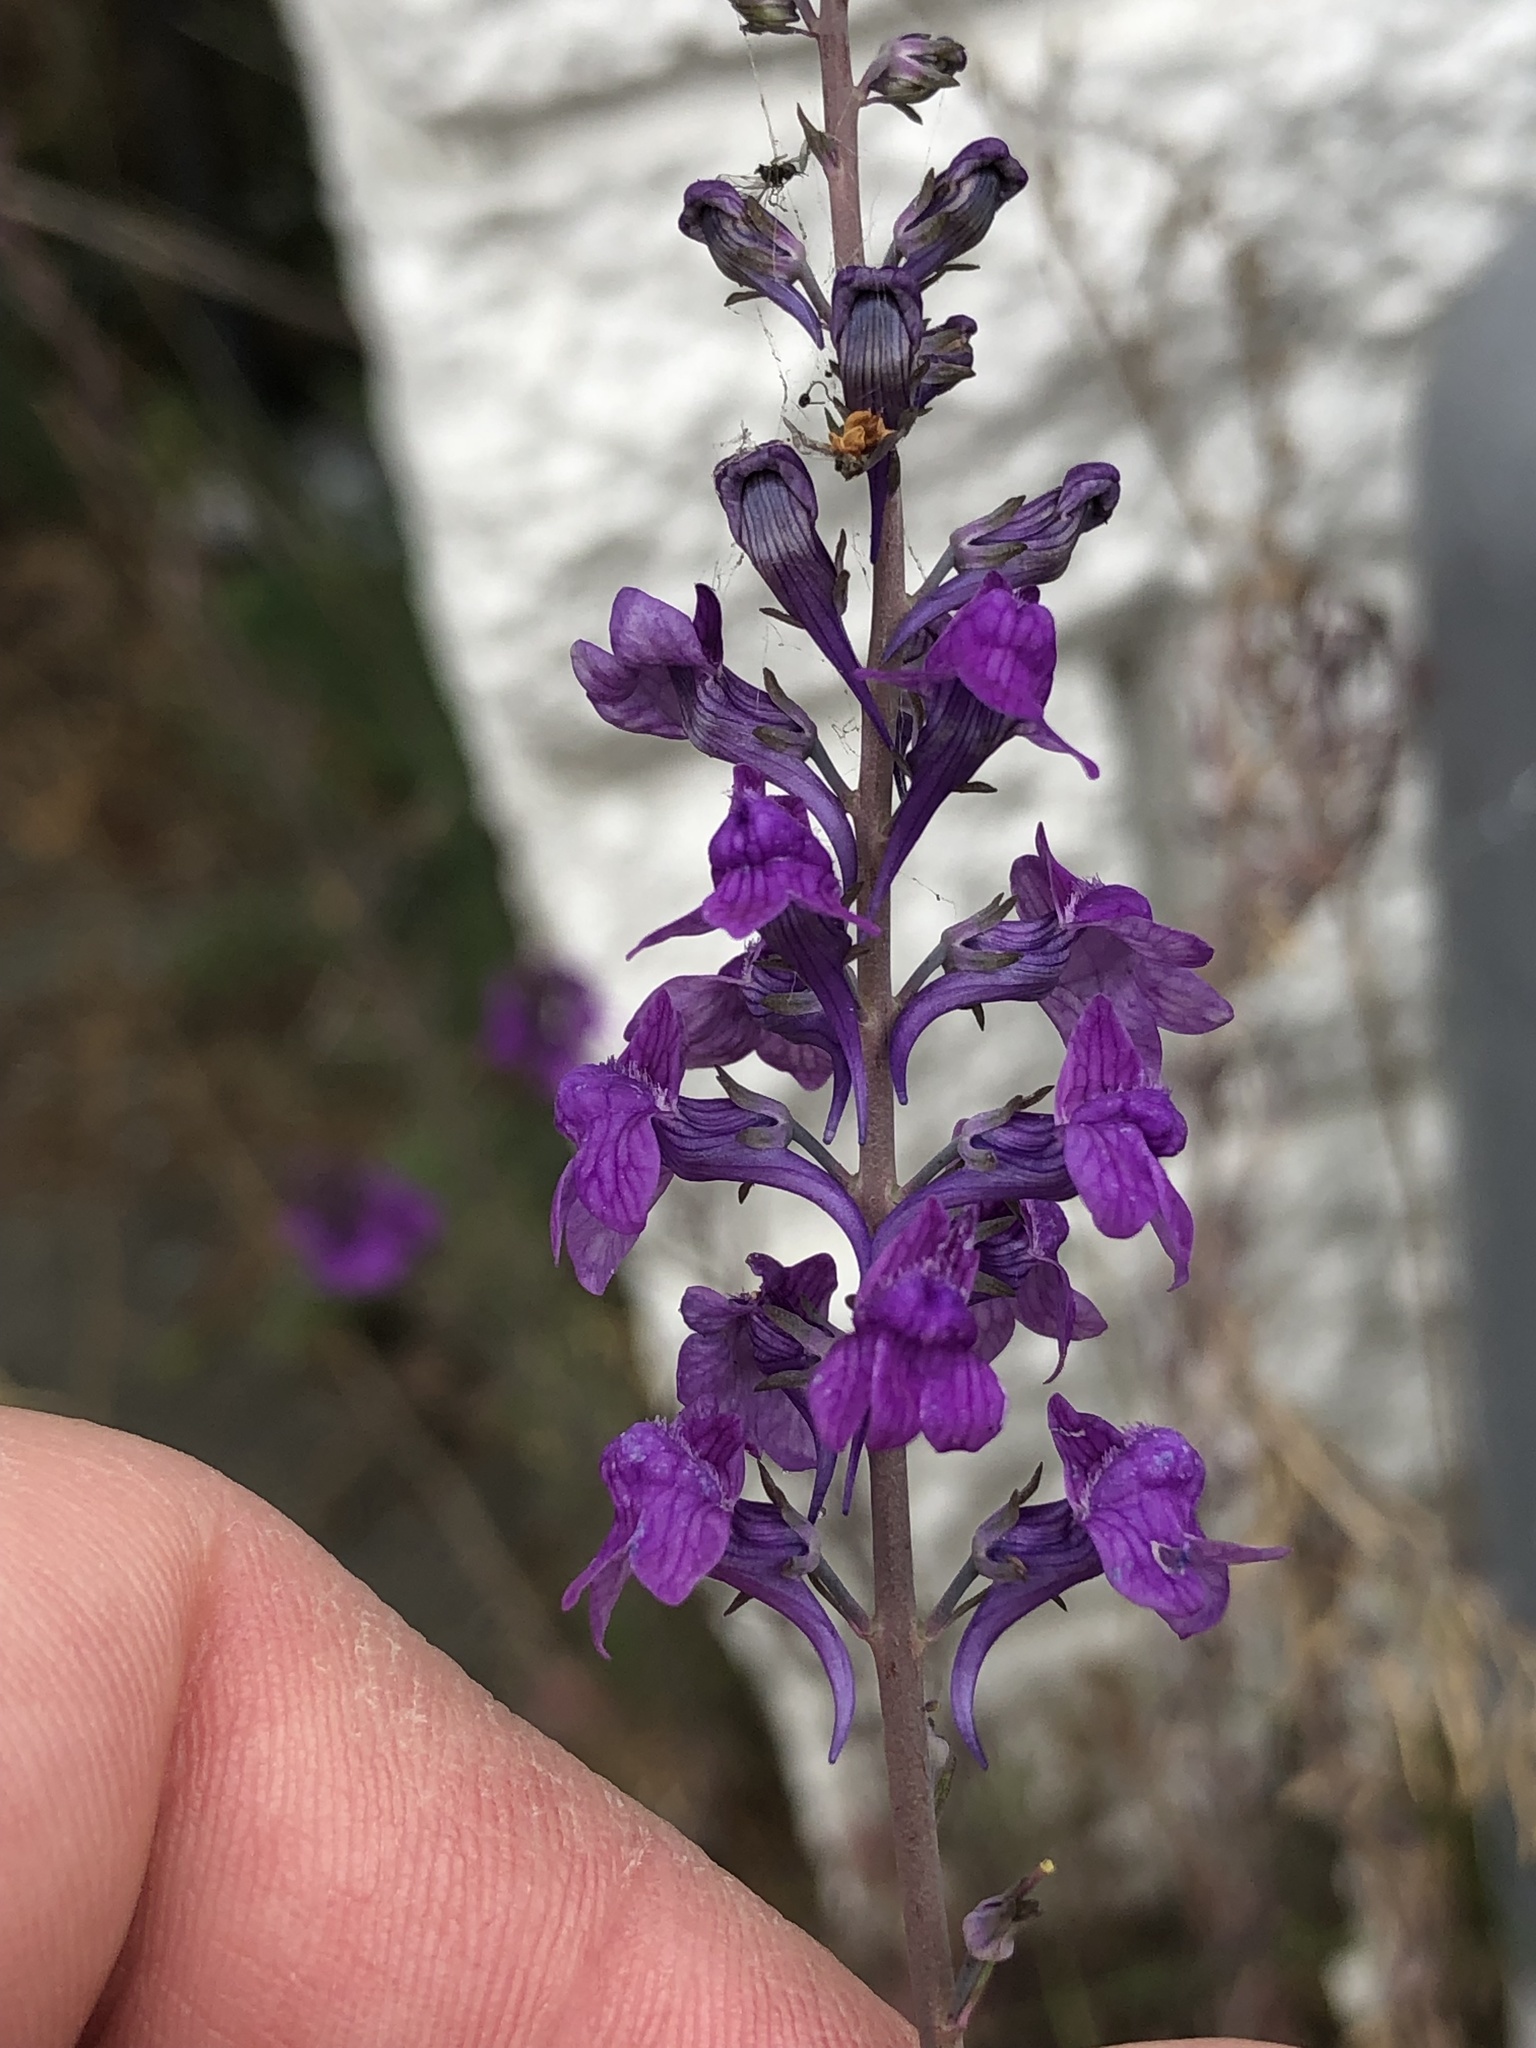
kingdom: Plantae
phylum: Tracheophyta
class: Magnoliopsida
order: Lamiales
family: Plantaginaceae
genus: Linaria
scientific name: Linaria purpurea
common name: Purple toadflax
